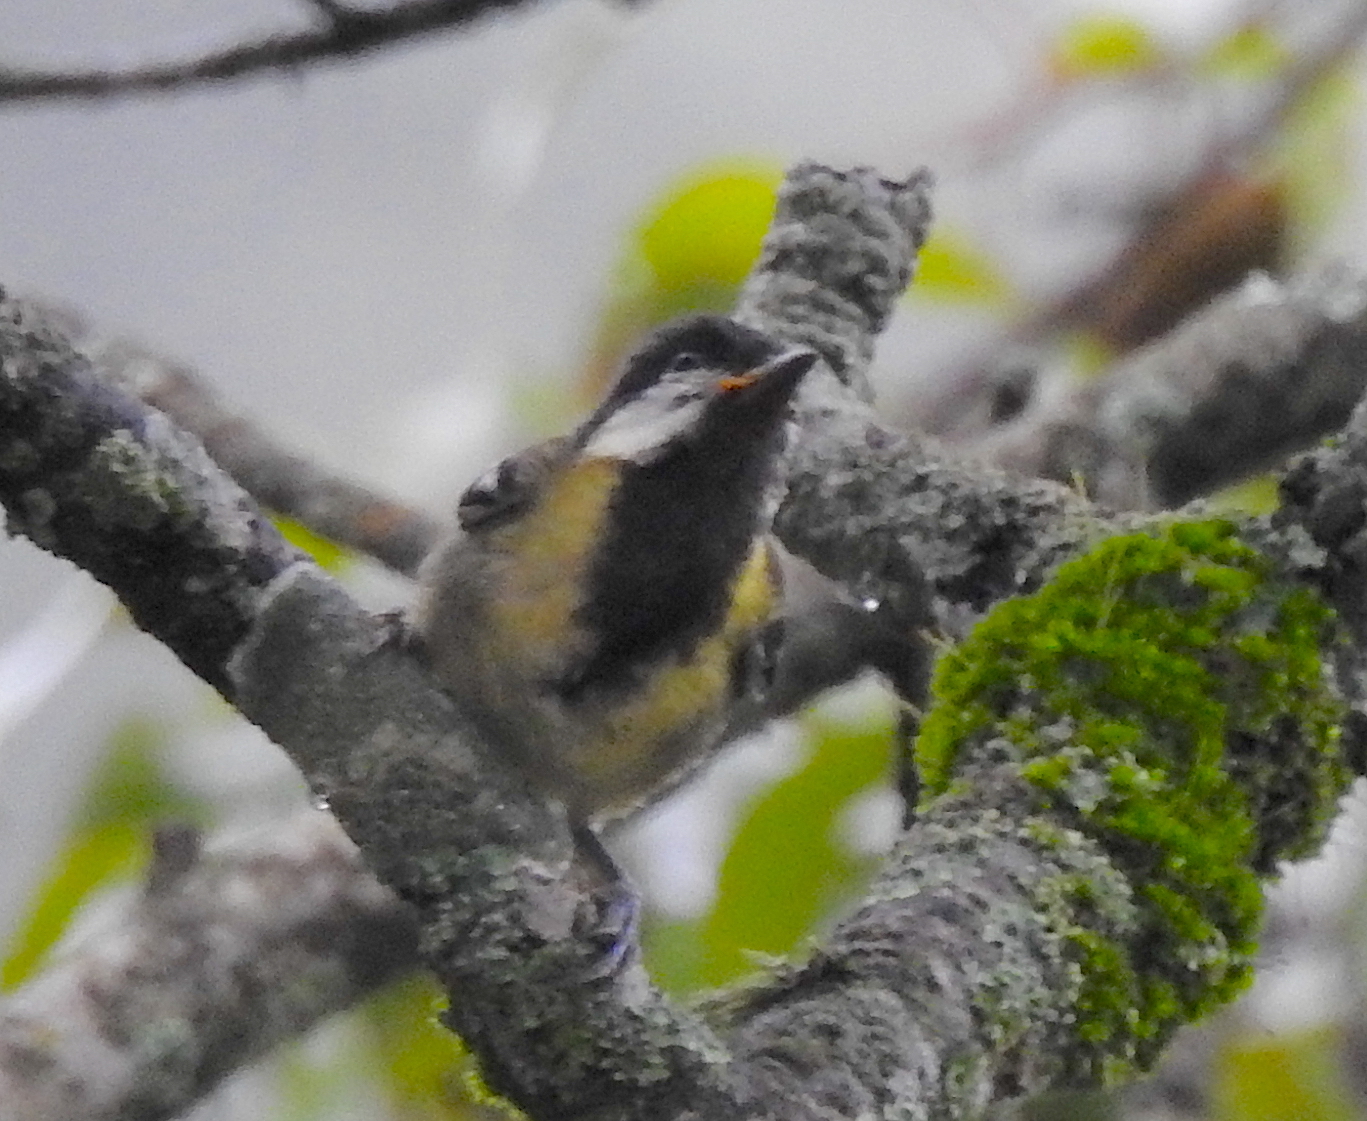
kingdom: Animalia
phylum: Chordata
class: Aves
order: Passeriformes
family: Paridae
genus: Parus
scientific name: Parus monticolus
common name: Green-backed tit
